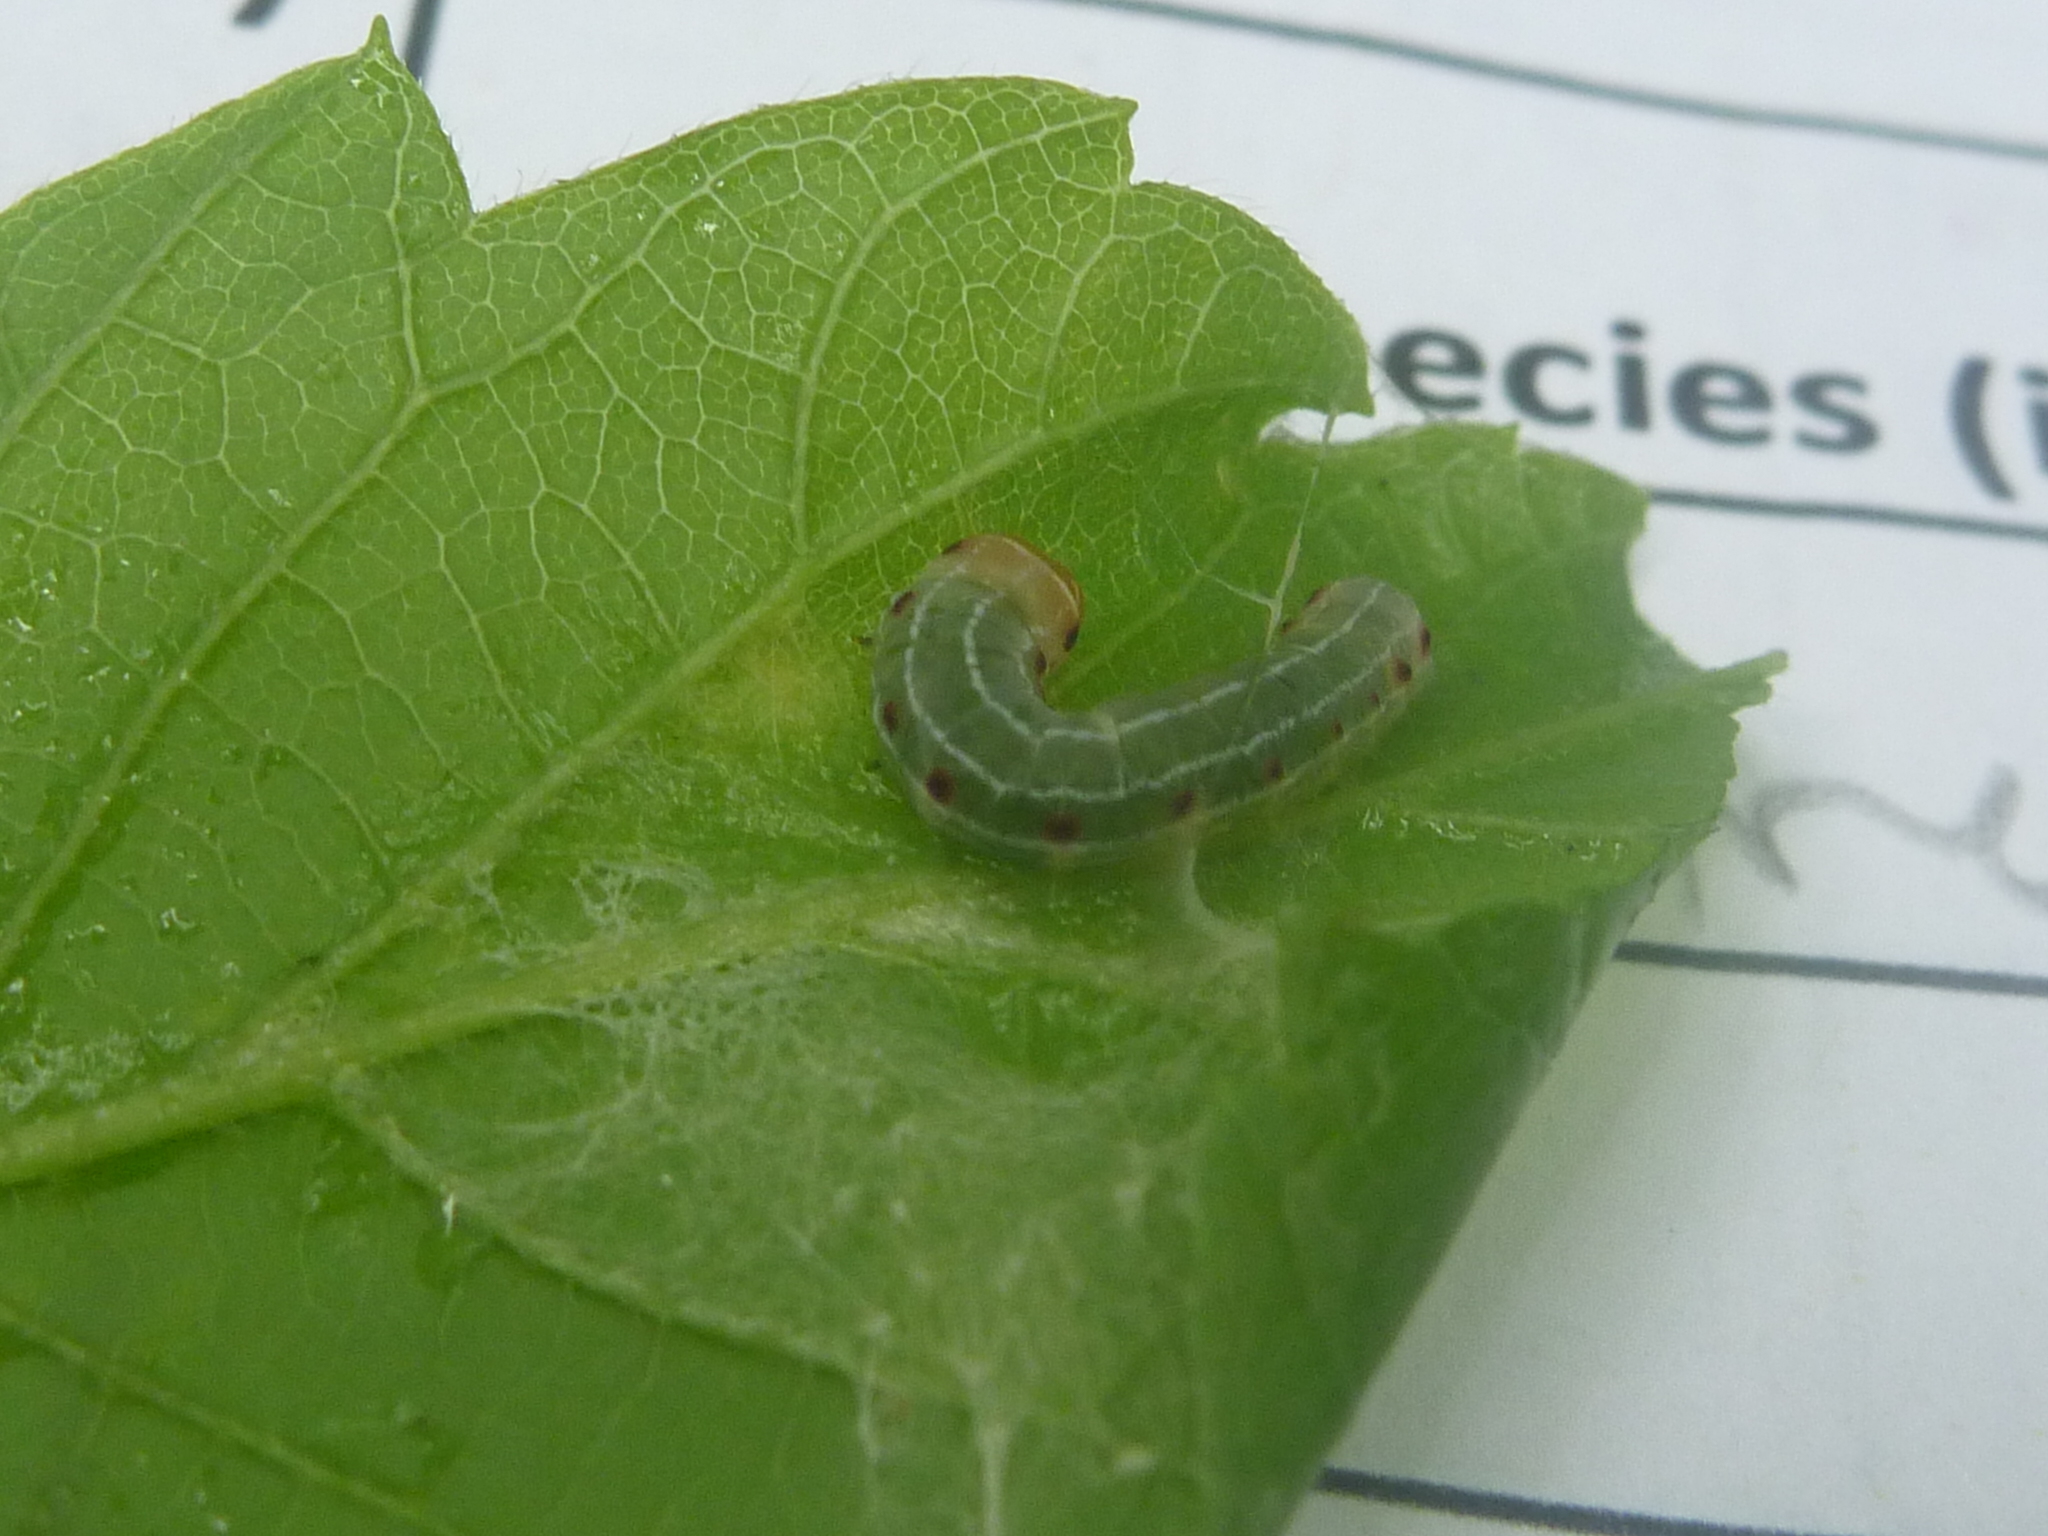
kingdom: Animalia
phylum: Arthropoda
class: Insecta
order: Lepidoptera
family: Noctuidae
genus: Achatia
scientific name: Achatia confusa
